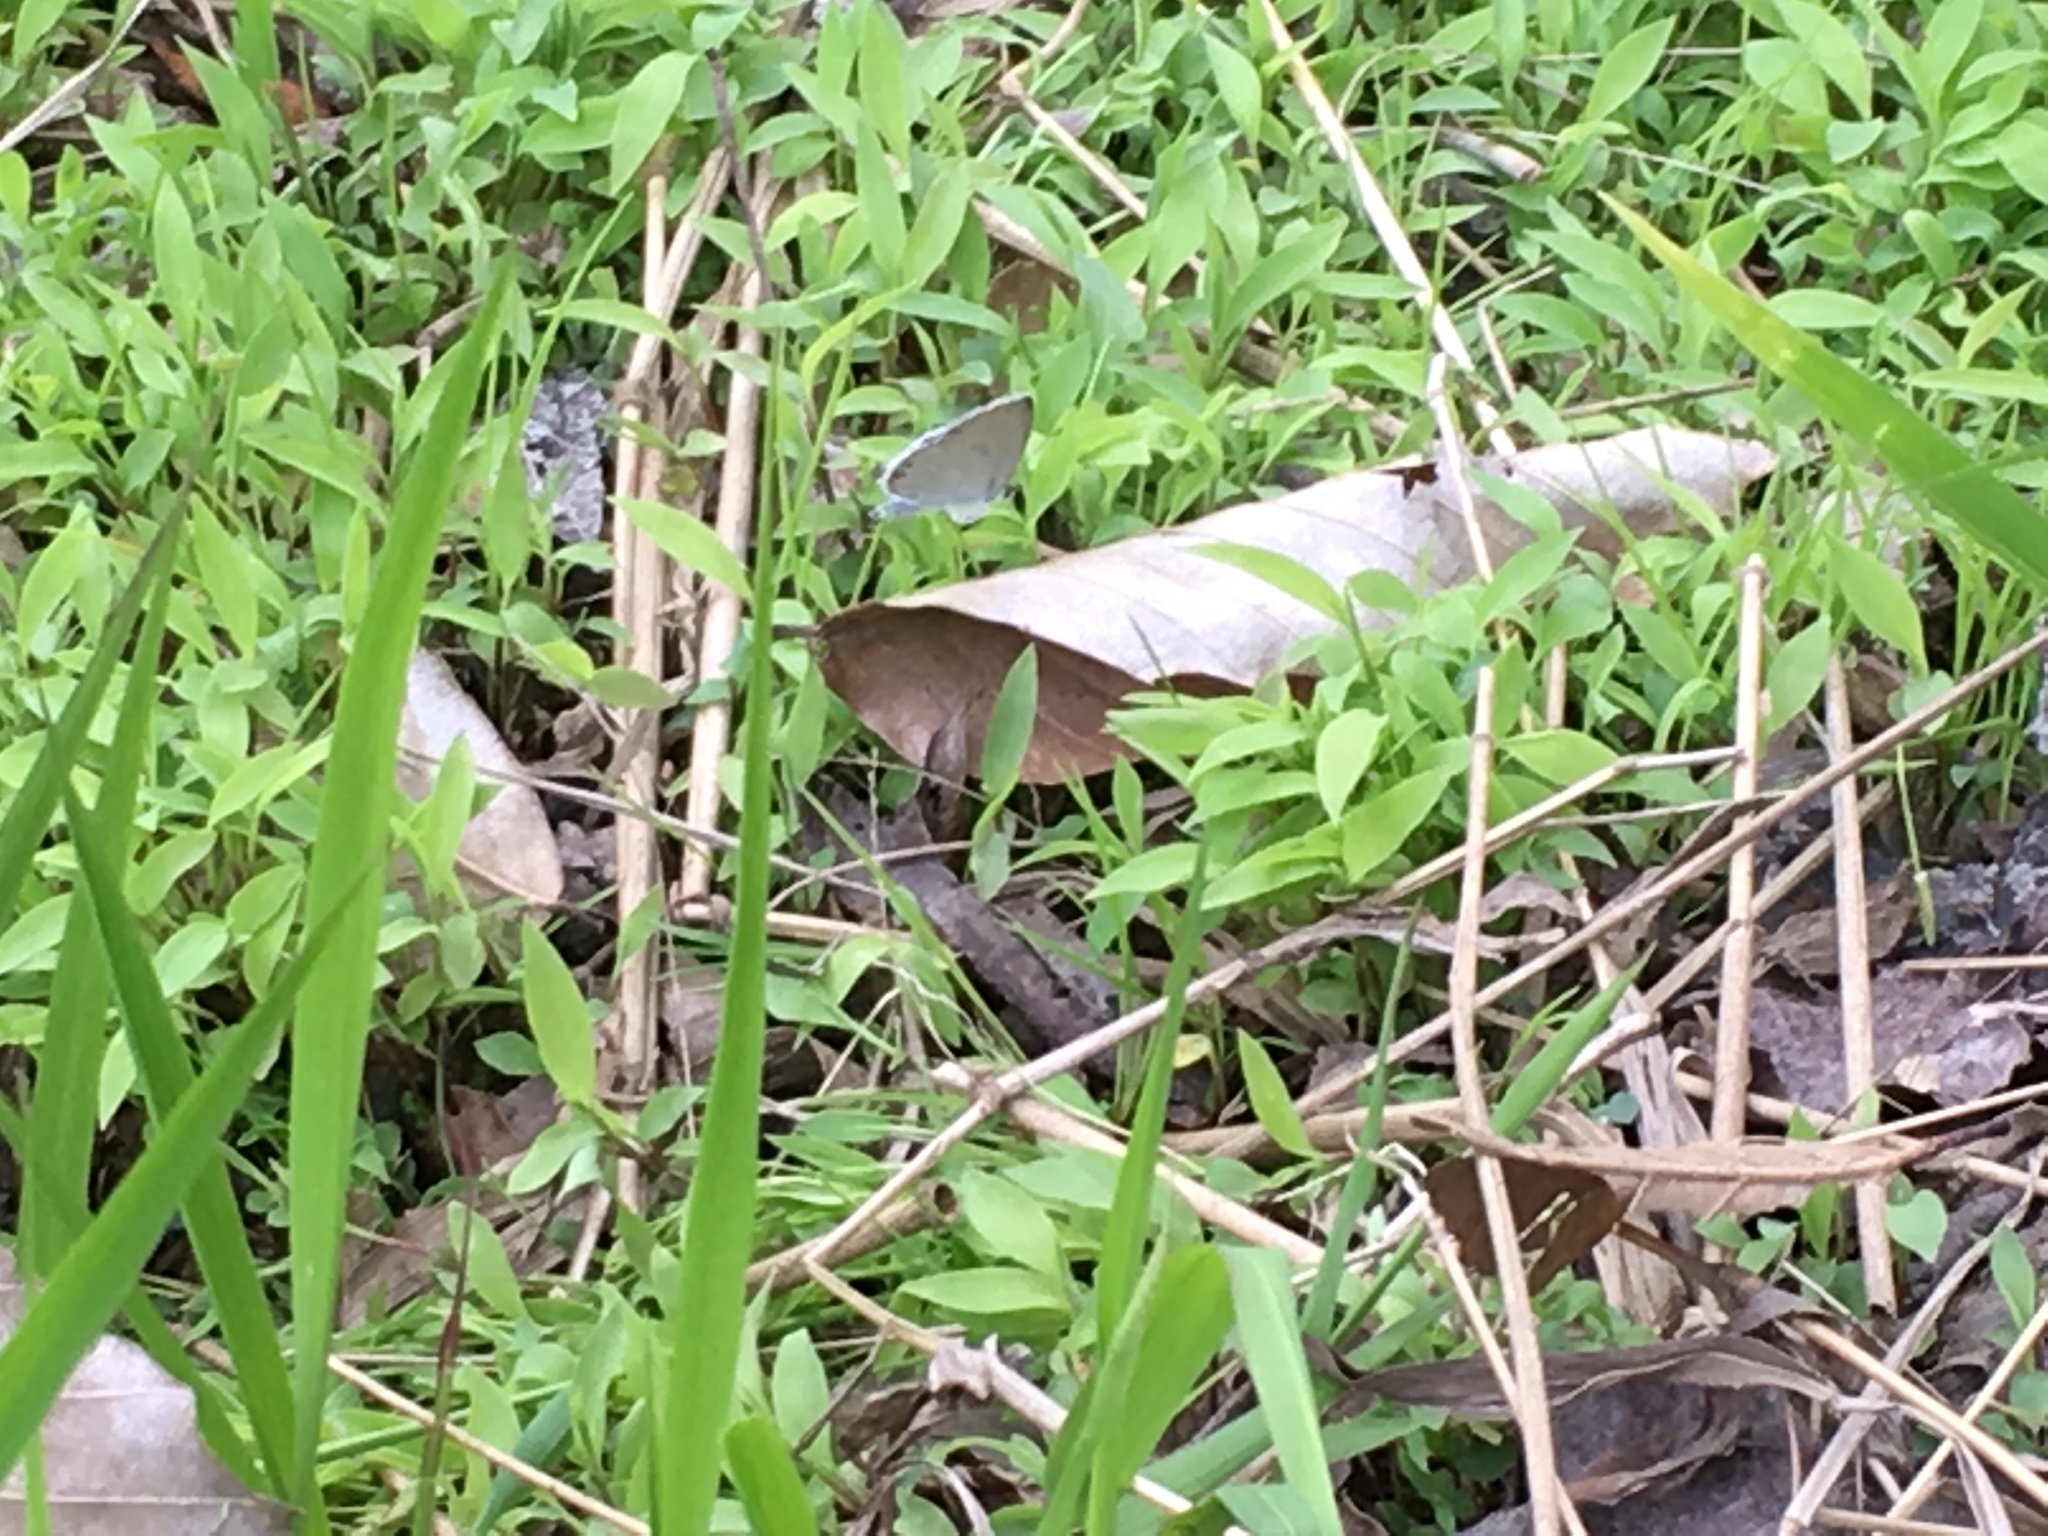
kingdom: Animalia
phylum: Arthropoda
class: Insecta
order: Lepidoptera
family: Lycaenidae
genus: Elkalyce
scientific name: Elkalyce comyntas
